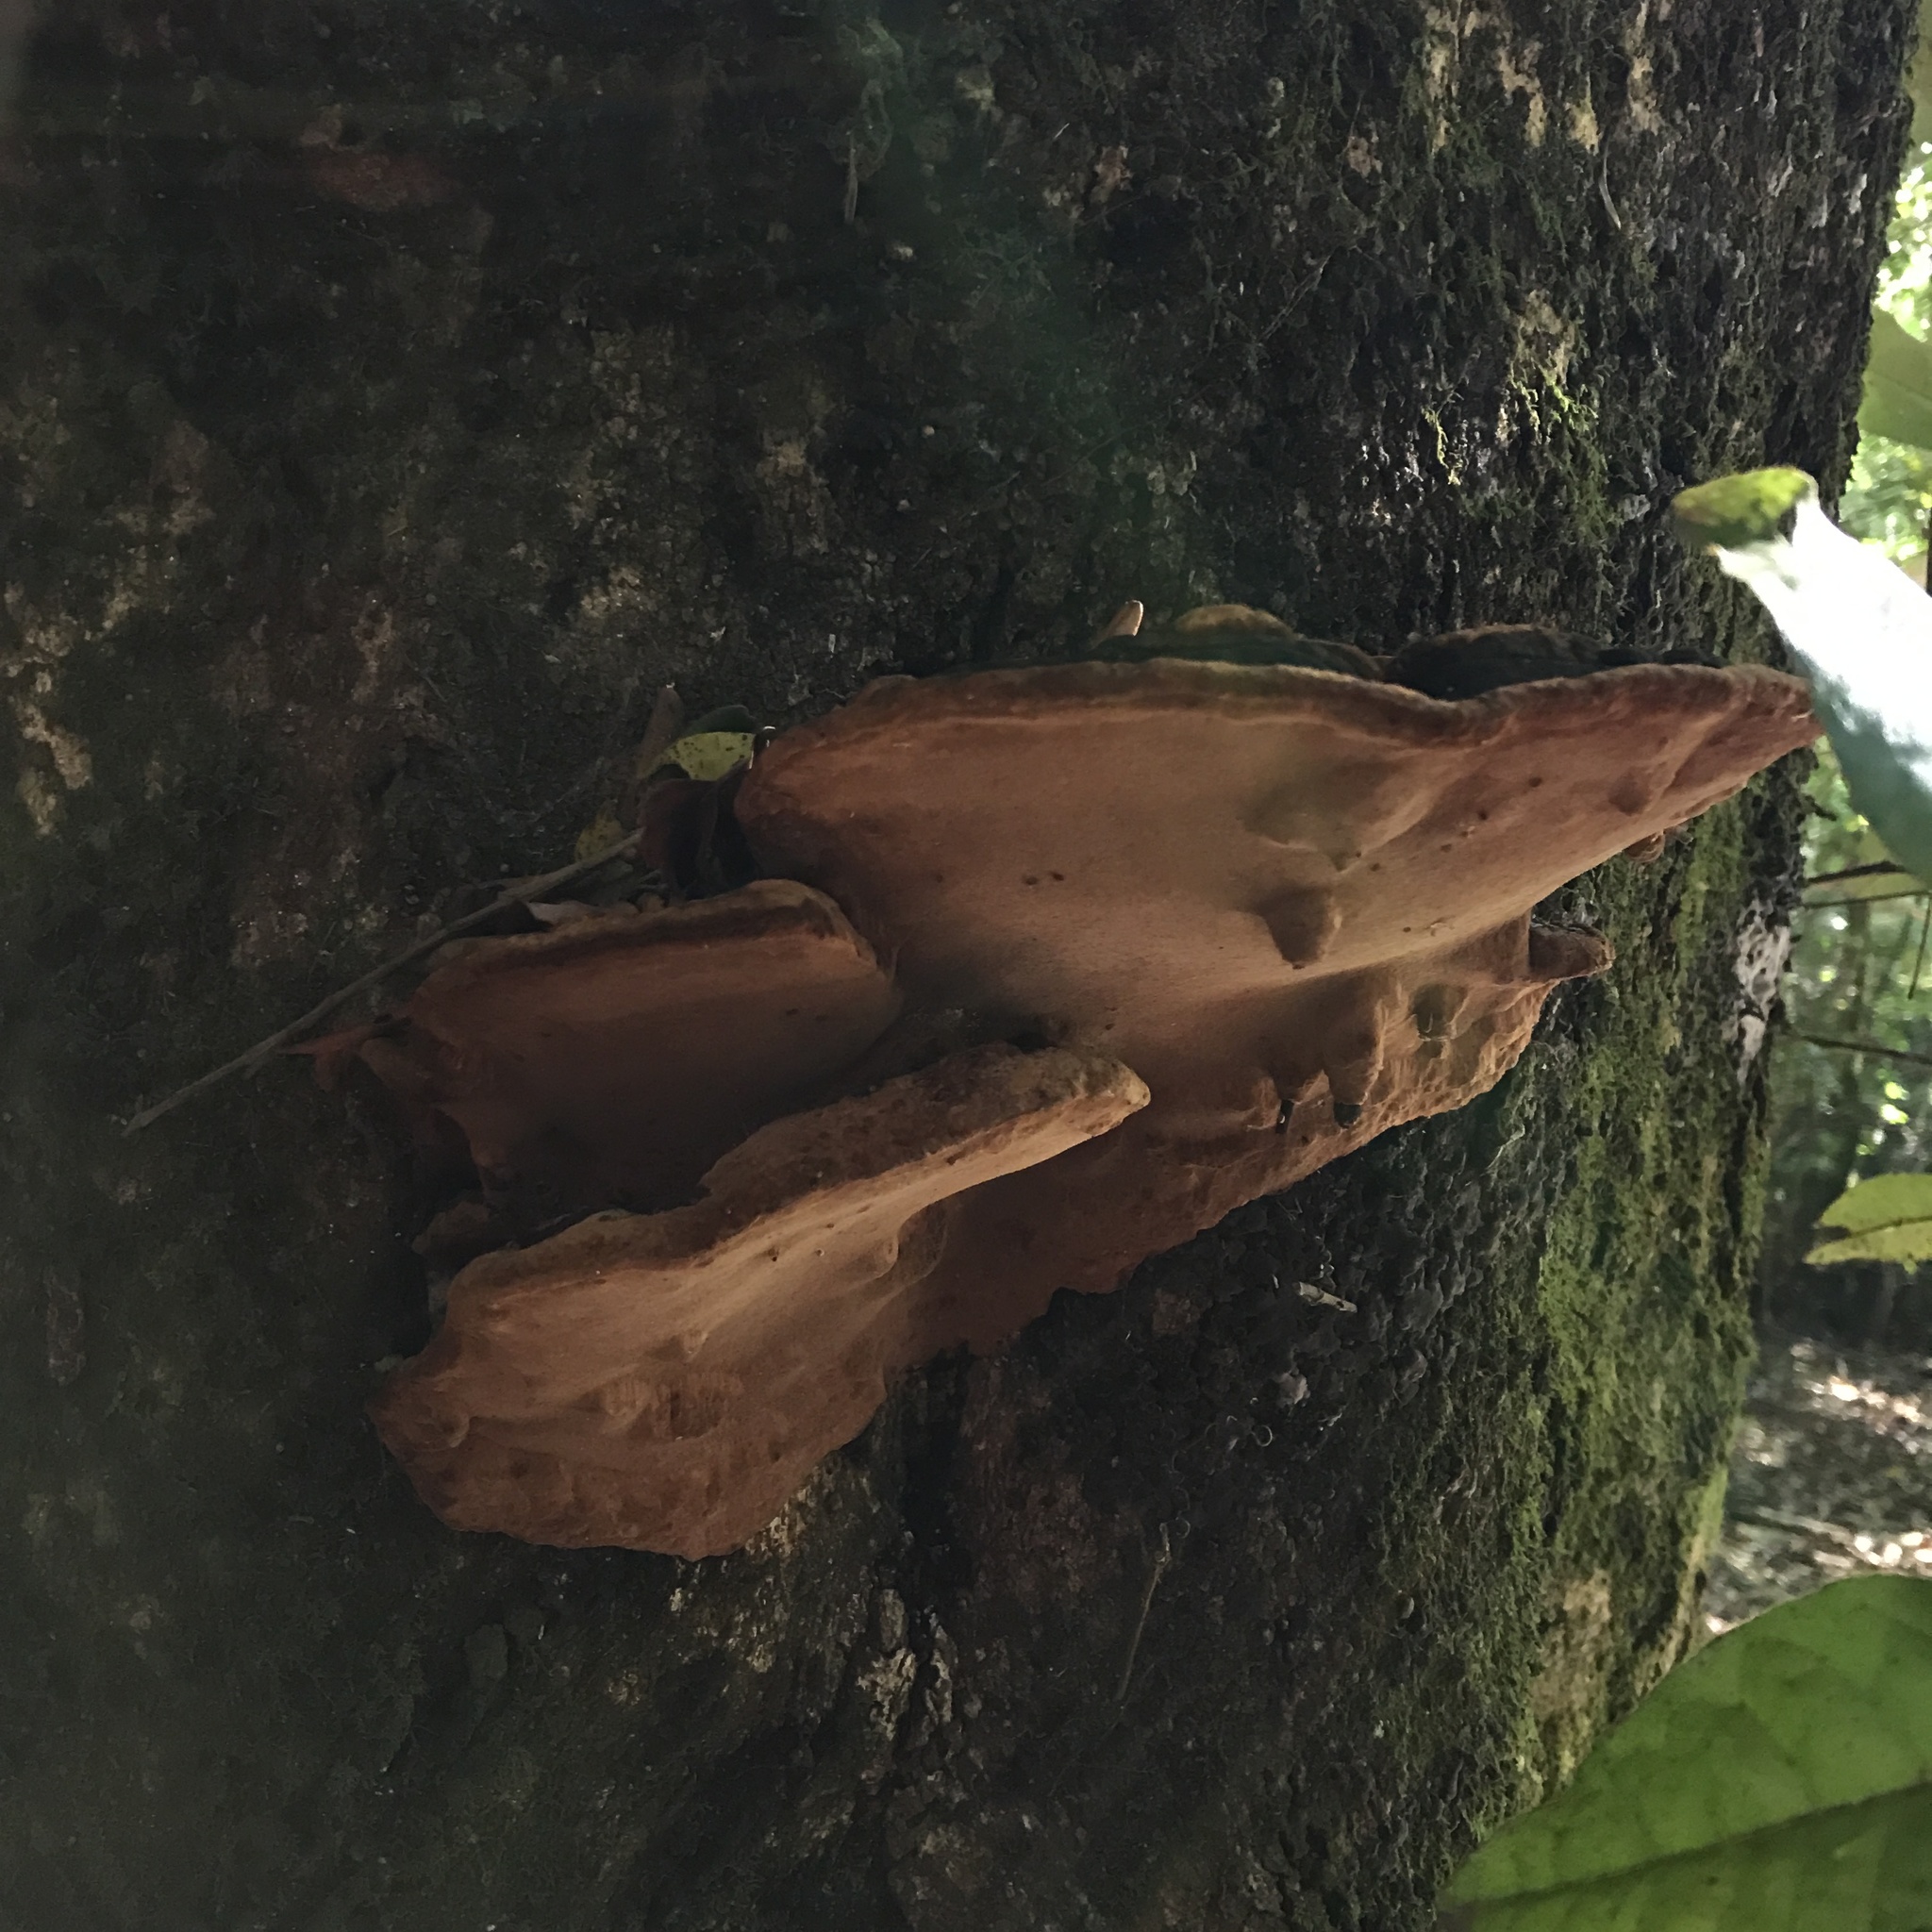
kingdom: Fungi
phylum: Basidiomycota
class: Agaricomycetes
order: Hymenochaetales
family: Hymenochaetaceae
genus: Fuscoporia
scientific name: Fuscoporia senex
